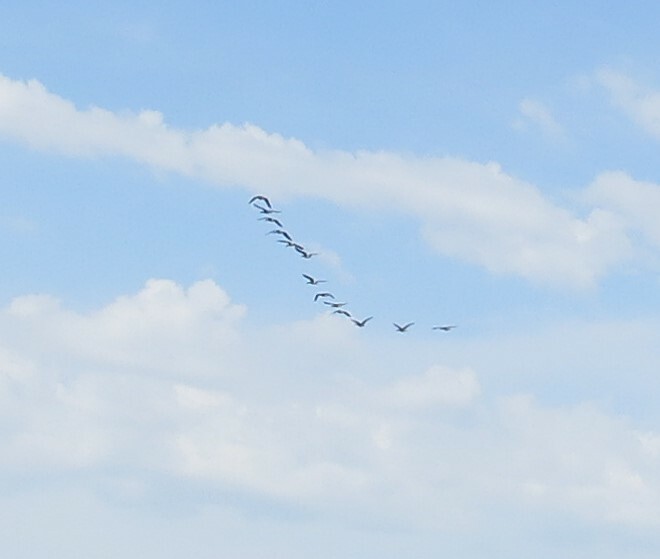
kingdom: Animalia
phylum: Chordata
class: Aves
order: Anseriformes
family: Anatidae
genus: Branta
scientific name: Branta canadensis
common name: Canada goose
